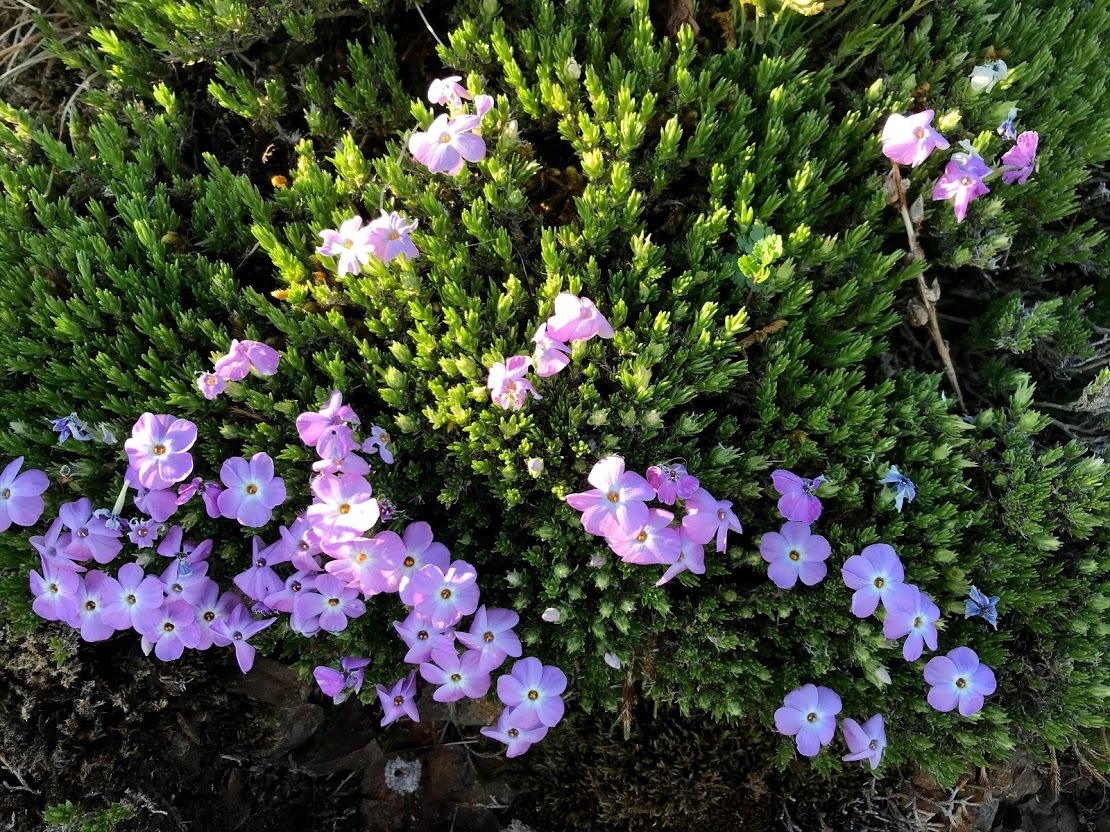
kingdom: Plantae
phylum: Tracheophyta
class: Magnoliopsida
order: Ericales
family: Polemoniaceae
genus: Phlox
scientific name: Phlox diffusa
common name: Mat phlox
